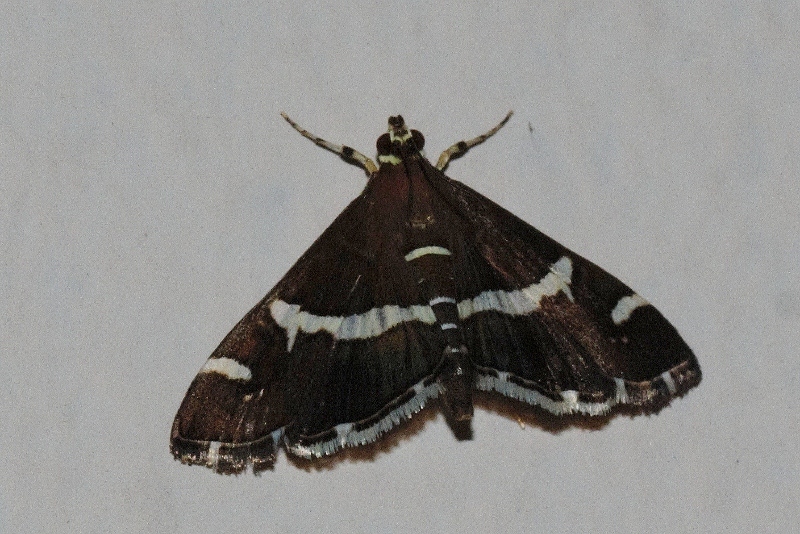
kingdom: Animalia
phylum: Arthropoda
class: Insecta
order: Lepidoptera
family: Crambidae
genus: Spoladea
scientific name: Spoladea recurvalis
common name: Beet webworm moth
